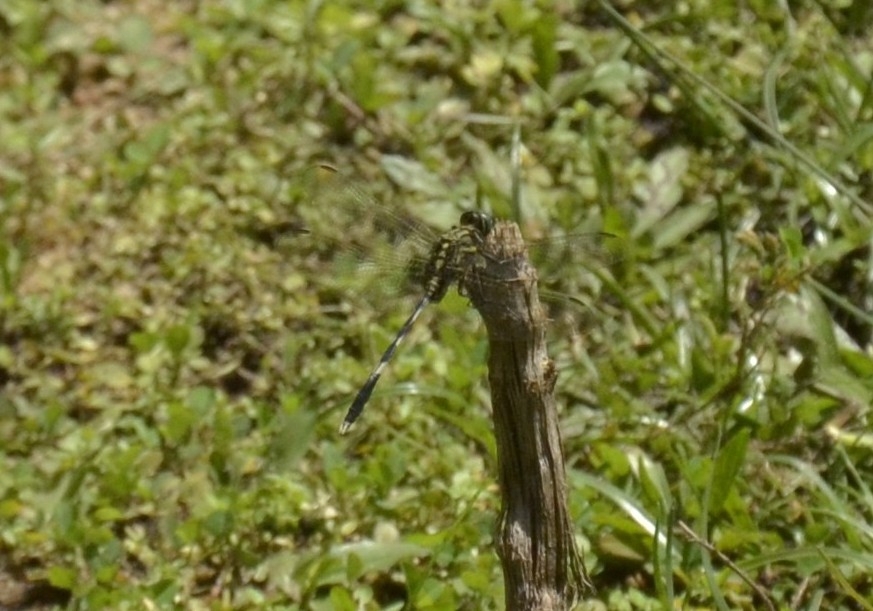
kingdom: Animalia
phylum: Arthropoda
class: Insecta
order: Odonata
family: Libellulidae
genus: Orthetrum
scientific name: Orthetrum sabina
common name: Slender skimmer
